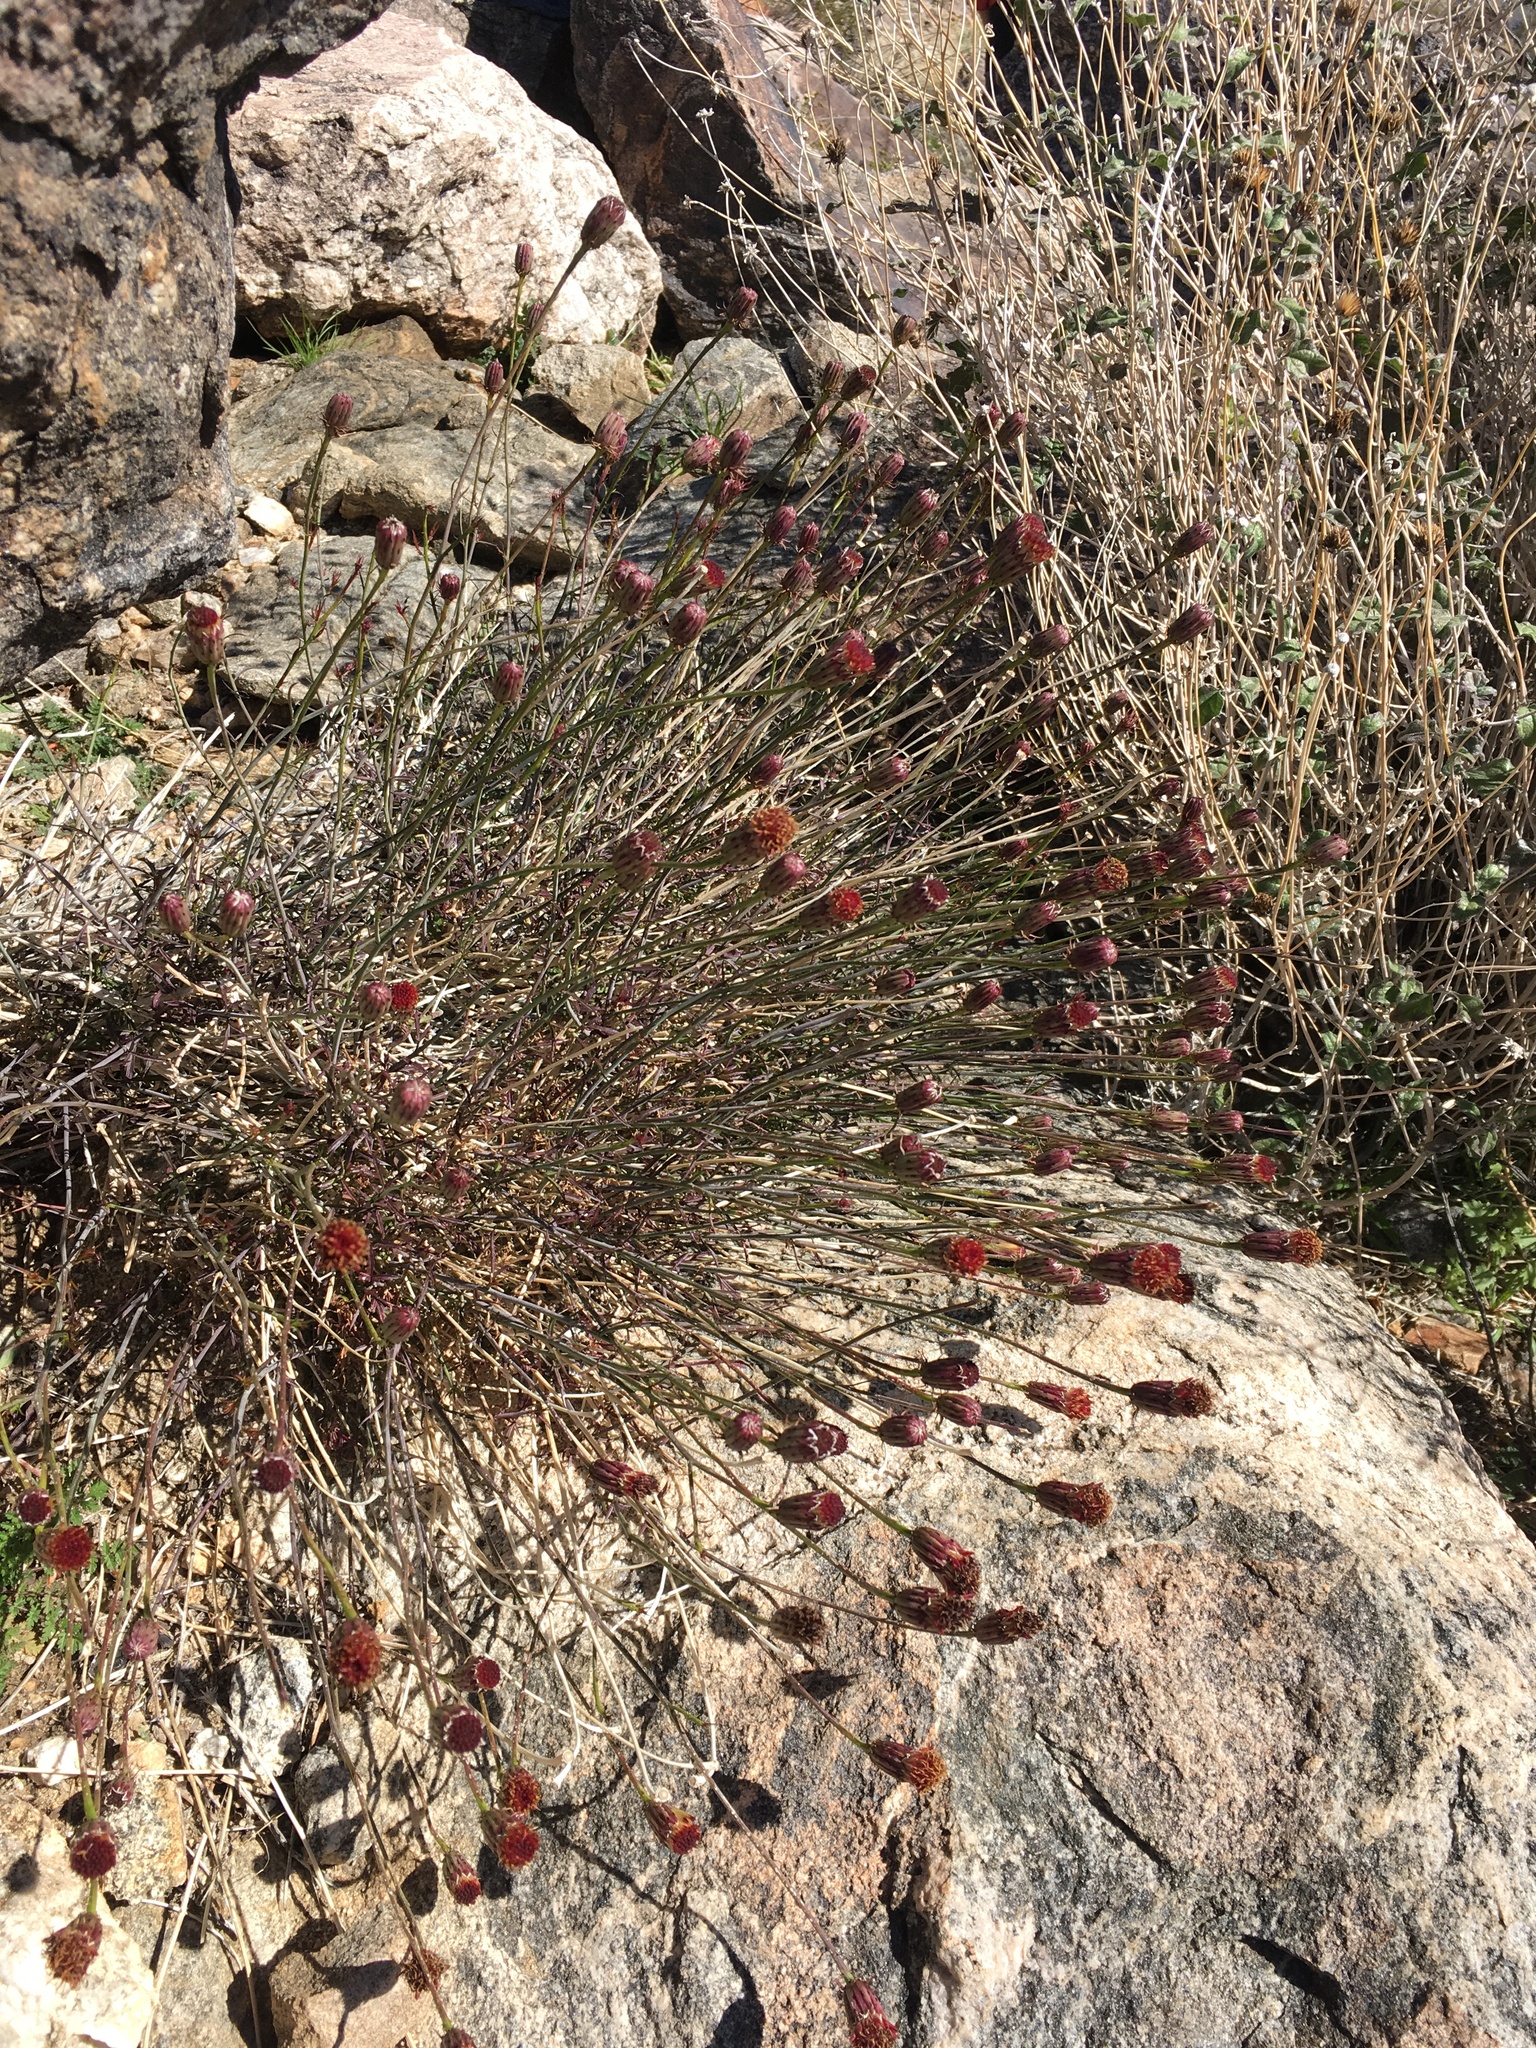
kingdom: Plantae
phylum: Tracheophyta
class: Magnoliopsida
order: Asterales
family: Asteraceae
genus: Adenophyllum
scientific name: Adenophyllum porophylloides
